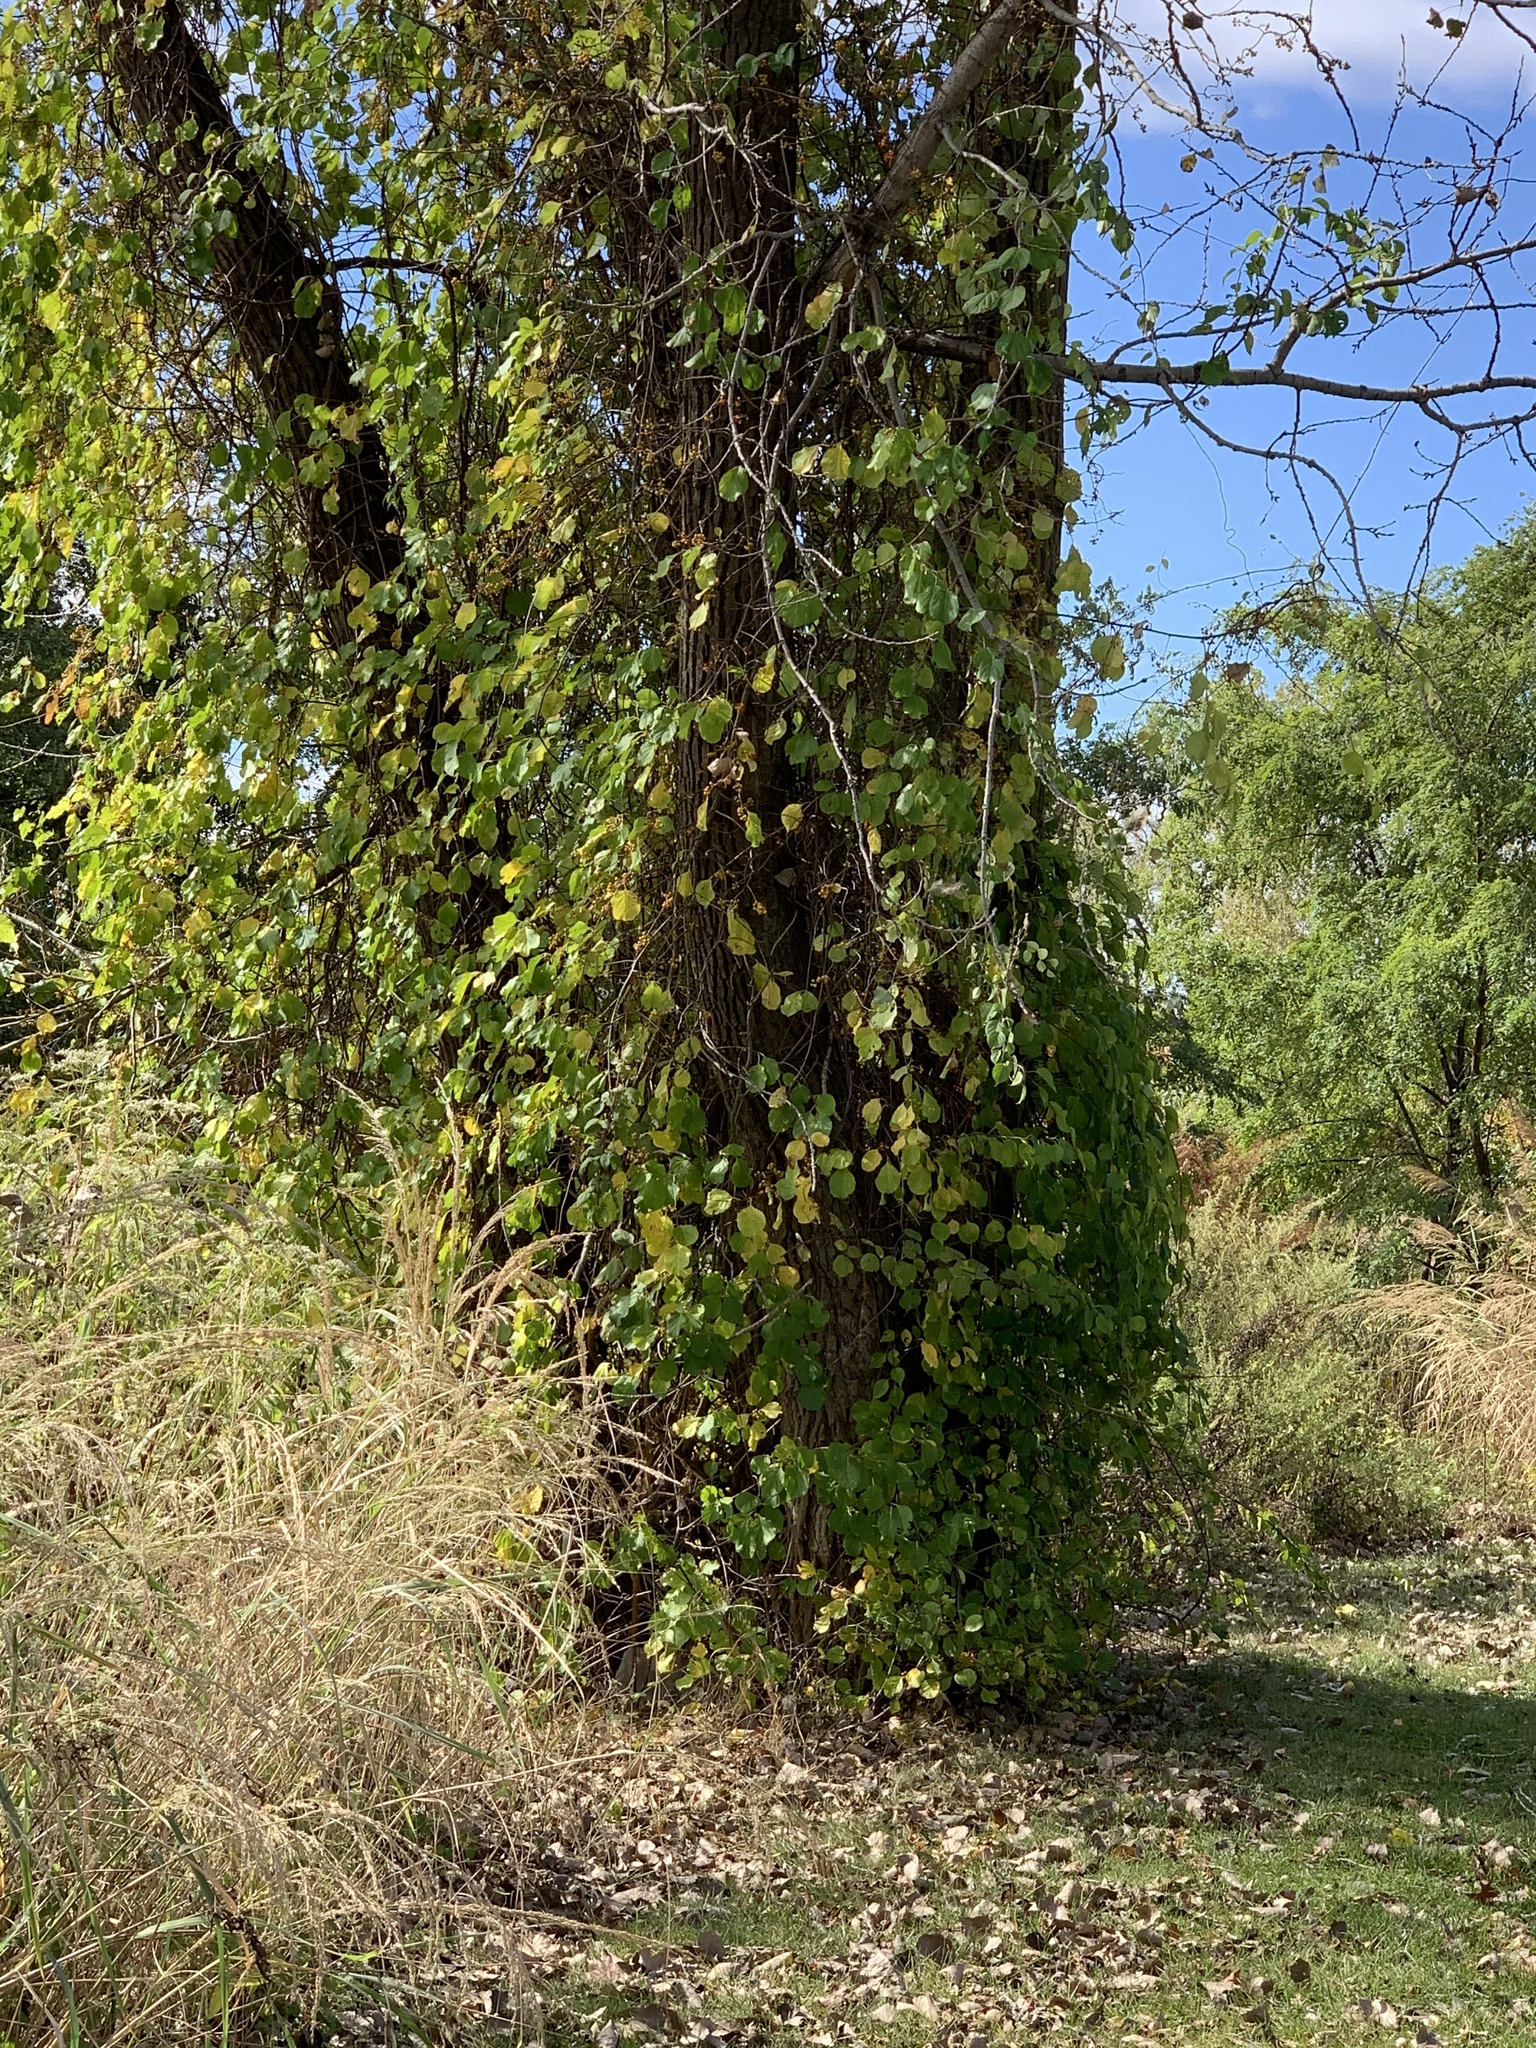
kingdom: Plantae
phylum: Tracheophyta
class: Magnoliopsida
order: Celastrales
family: Celastraceae
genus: Celastrus
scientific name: Celastrus orbiculatus
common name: Oriental bittersweet
